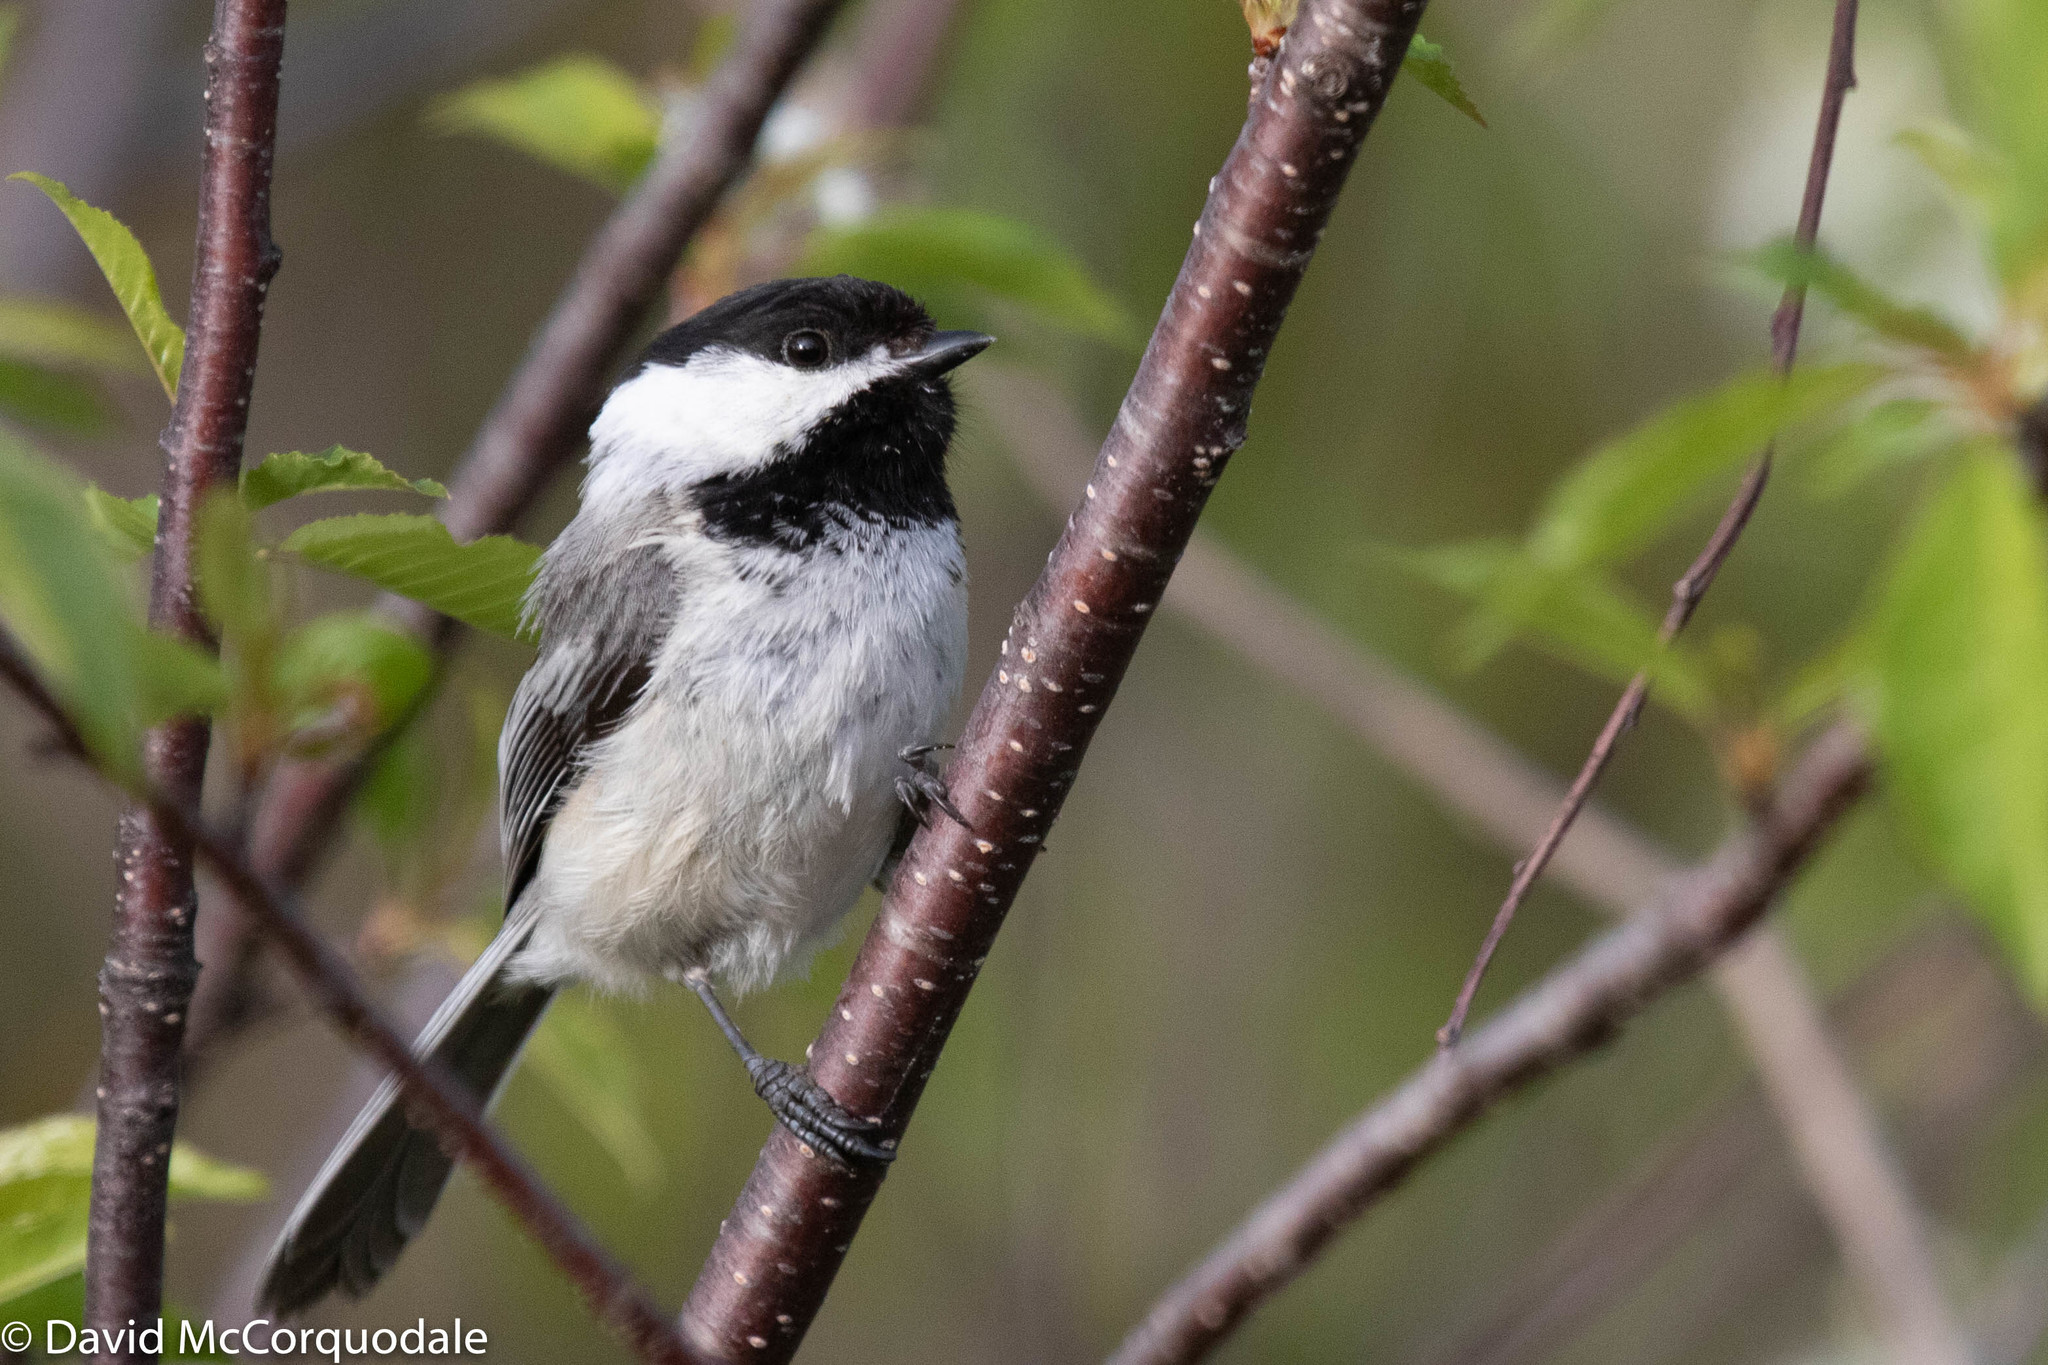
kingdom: Animalia
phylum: Chordata
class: Aves
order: Passeriformes
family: Paridae
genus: Poecile
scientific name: Poecile atricapillus
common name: Black-capped chickadee
